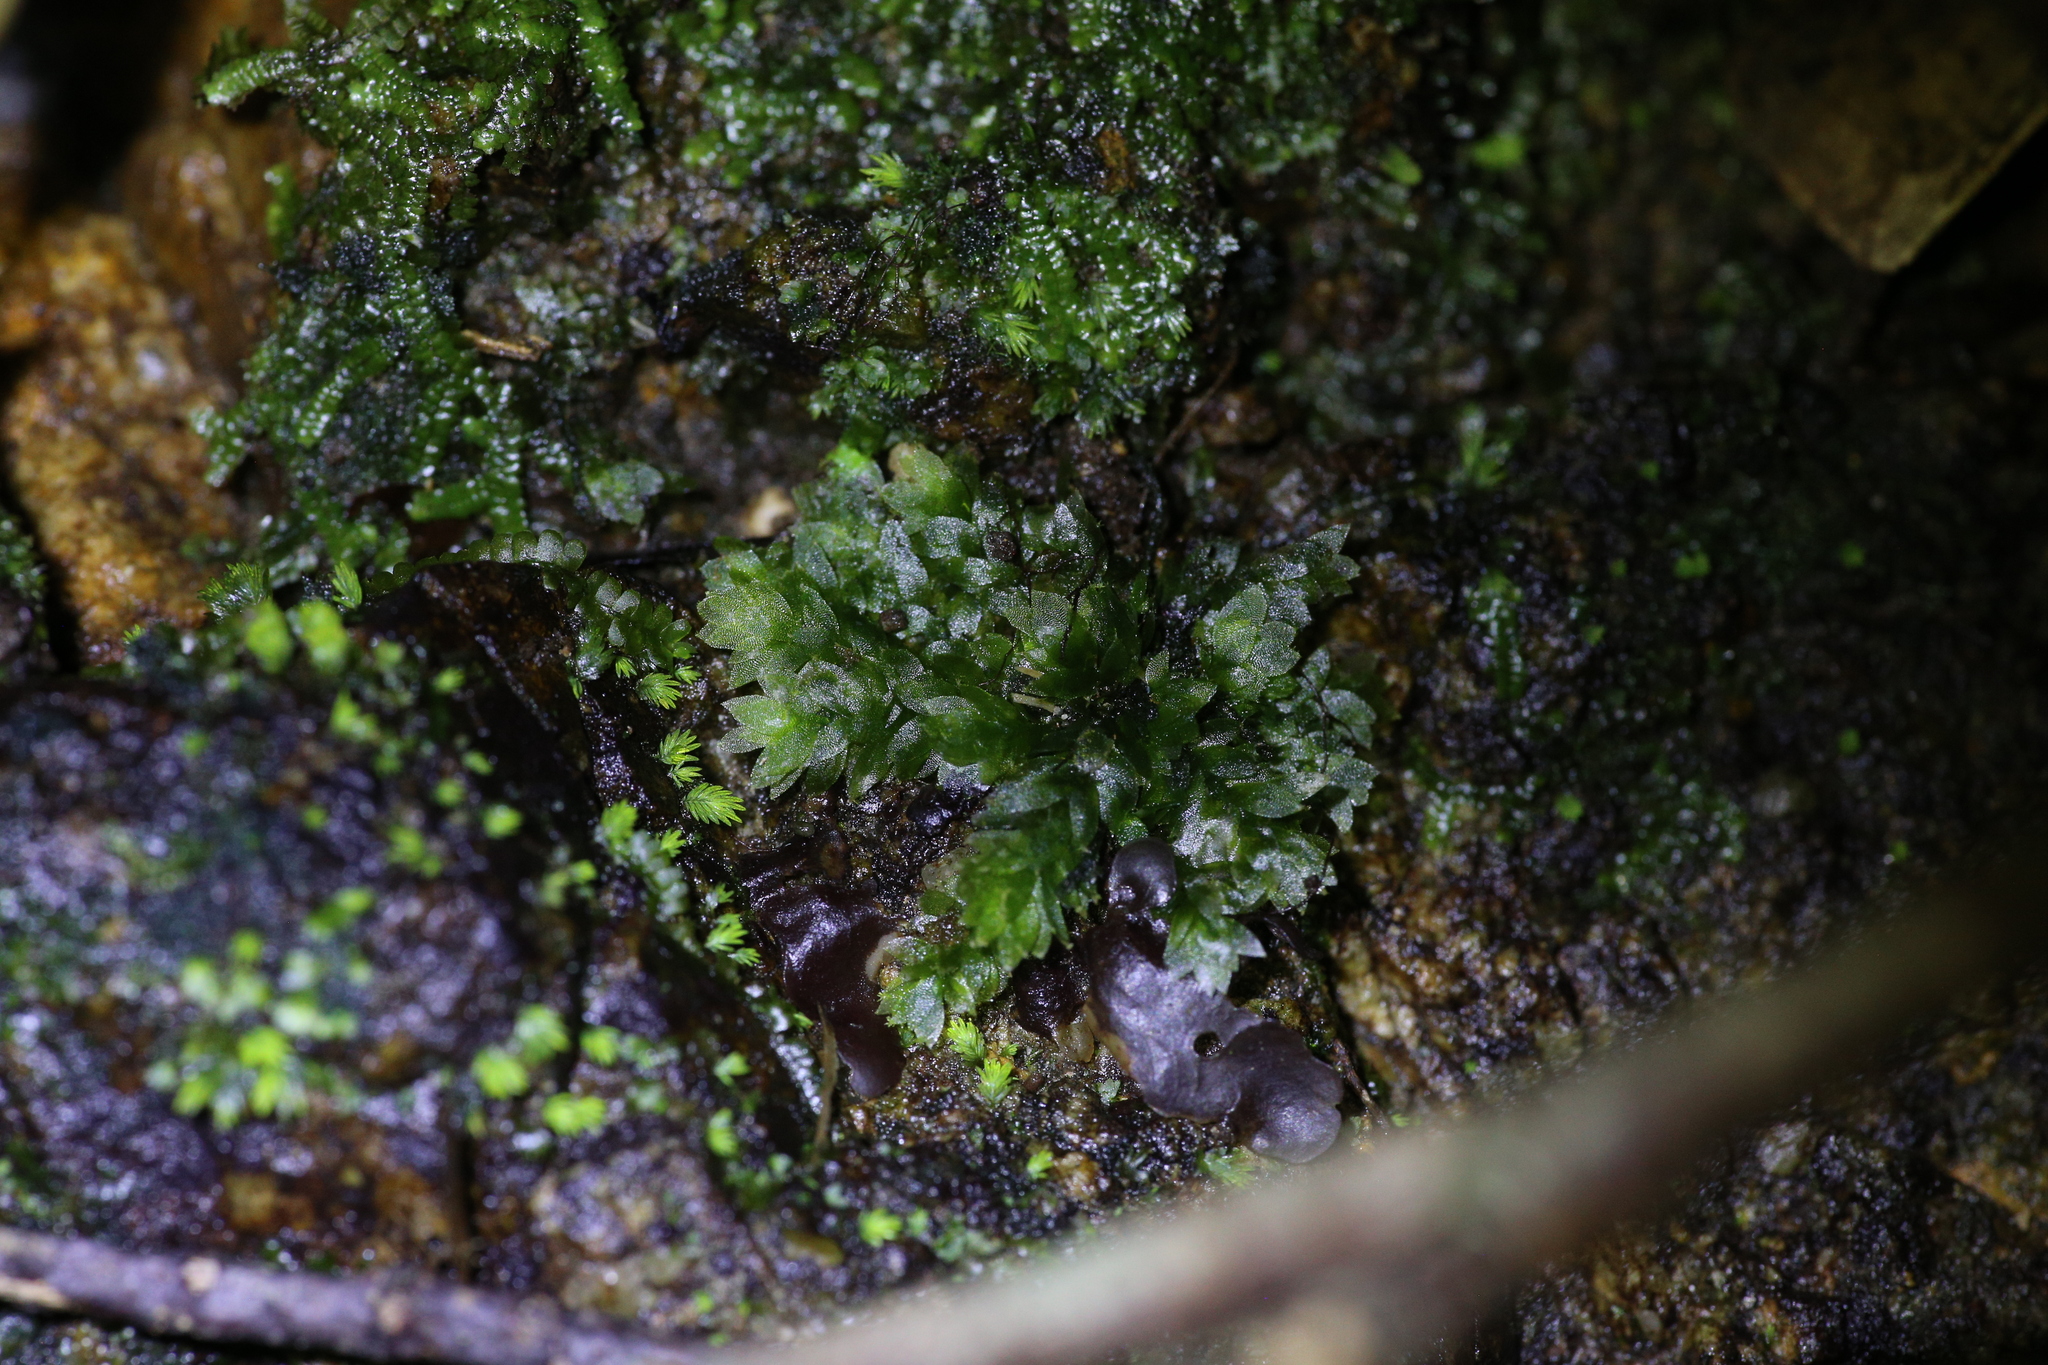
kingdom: Plantae
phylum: Bryophyta
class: Bryopsida
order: Hookeriales
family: Hookeriaceae
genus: Hookeria
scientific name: Hookeria acutifolia
